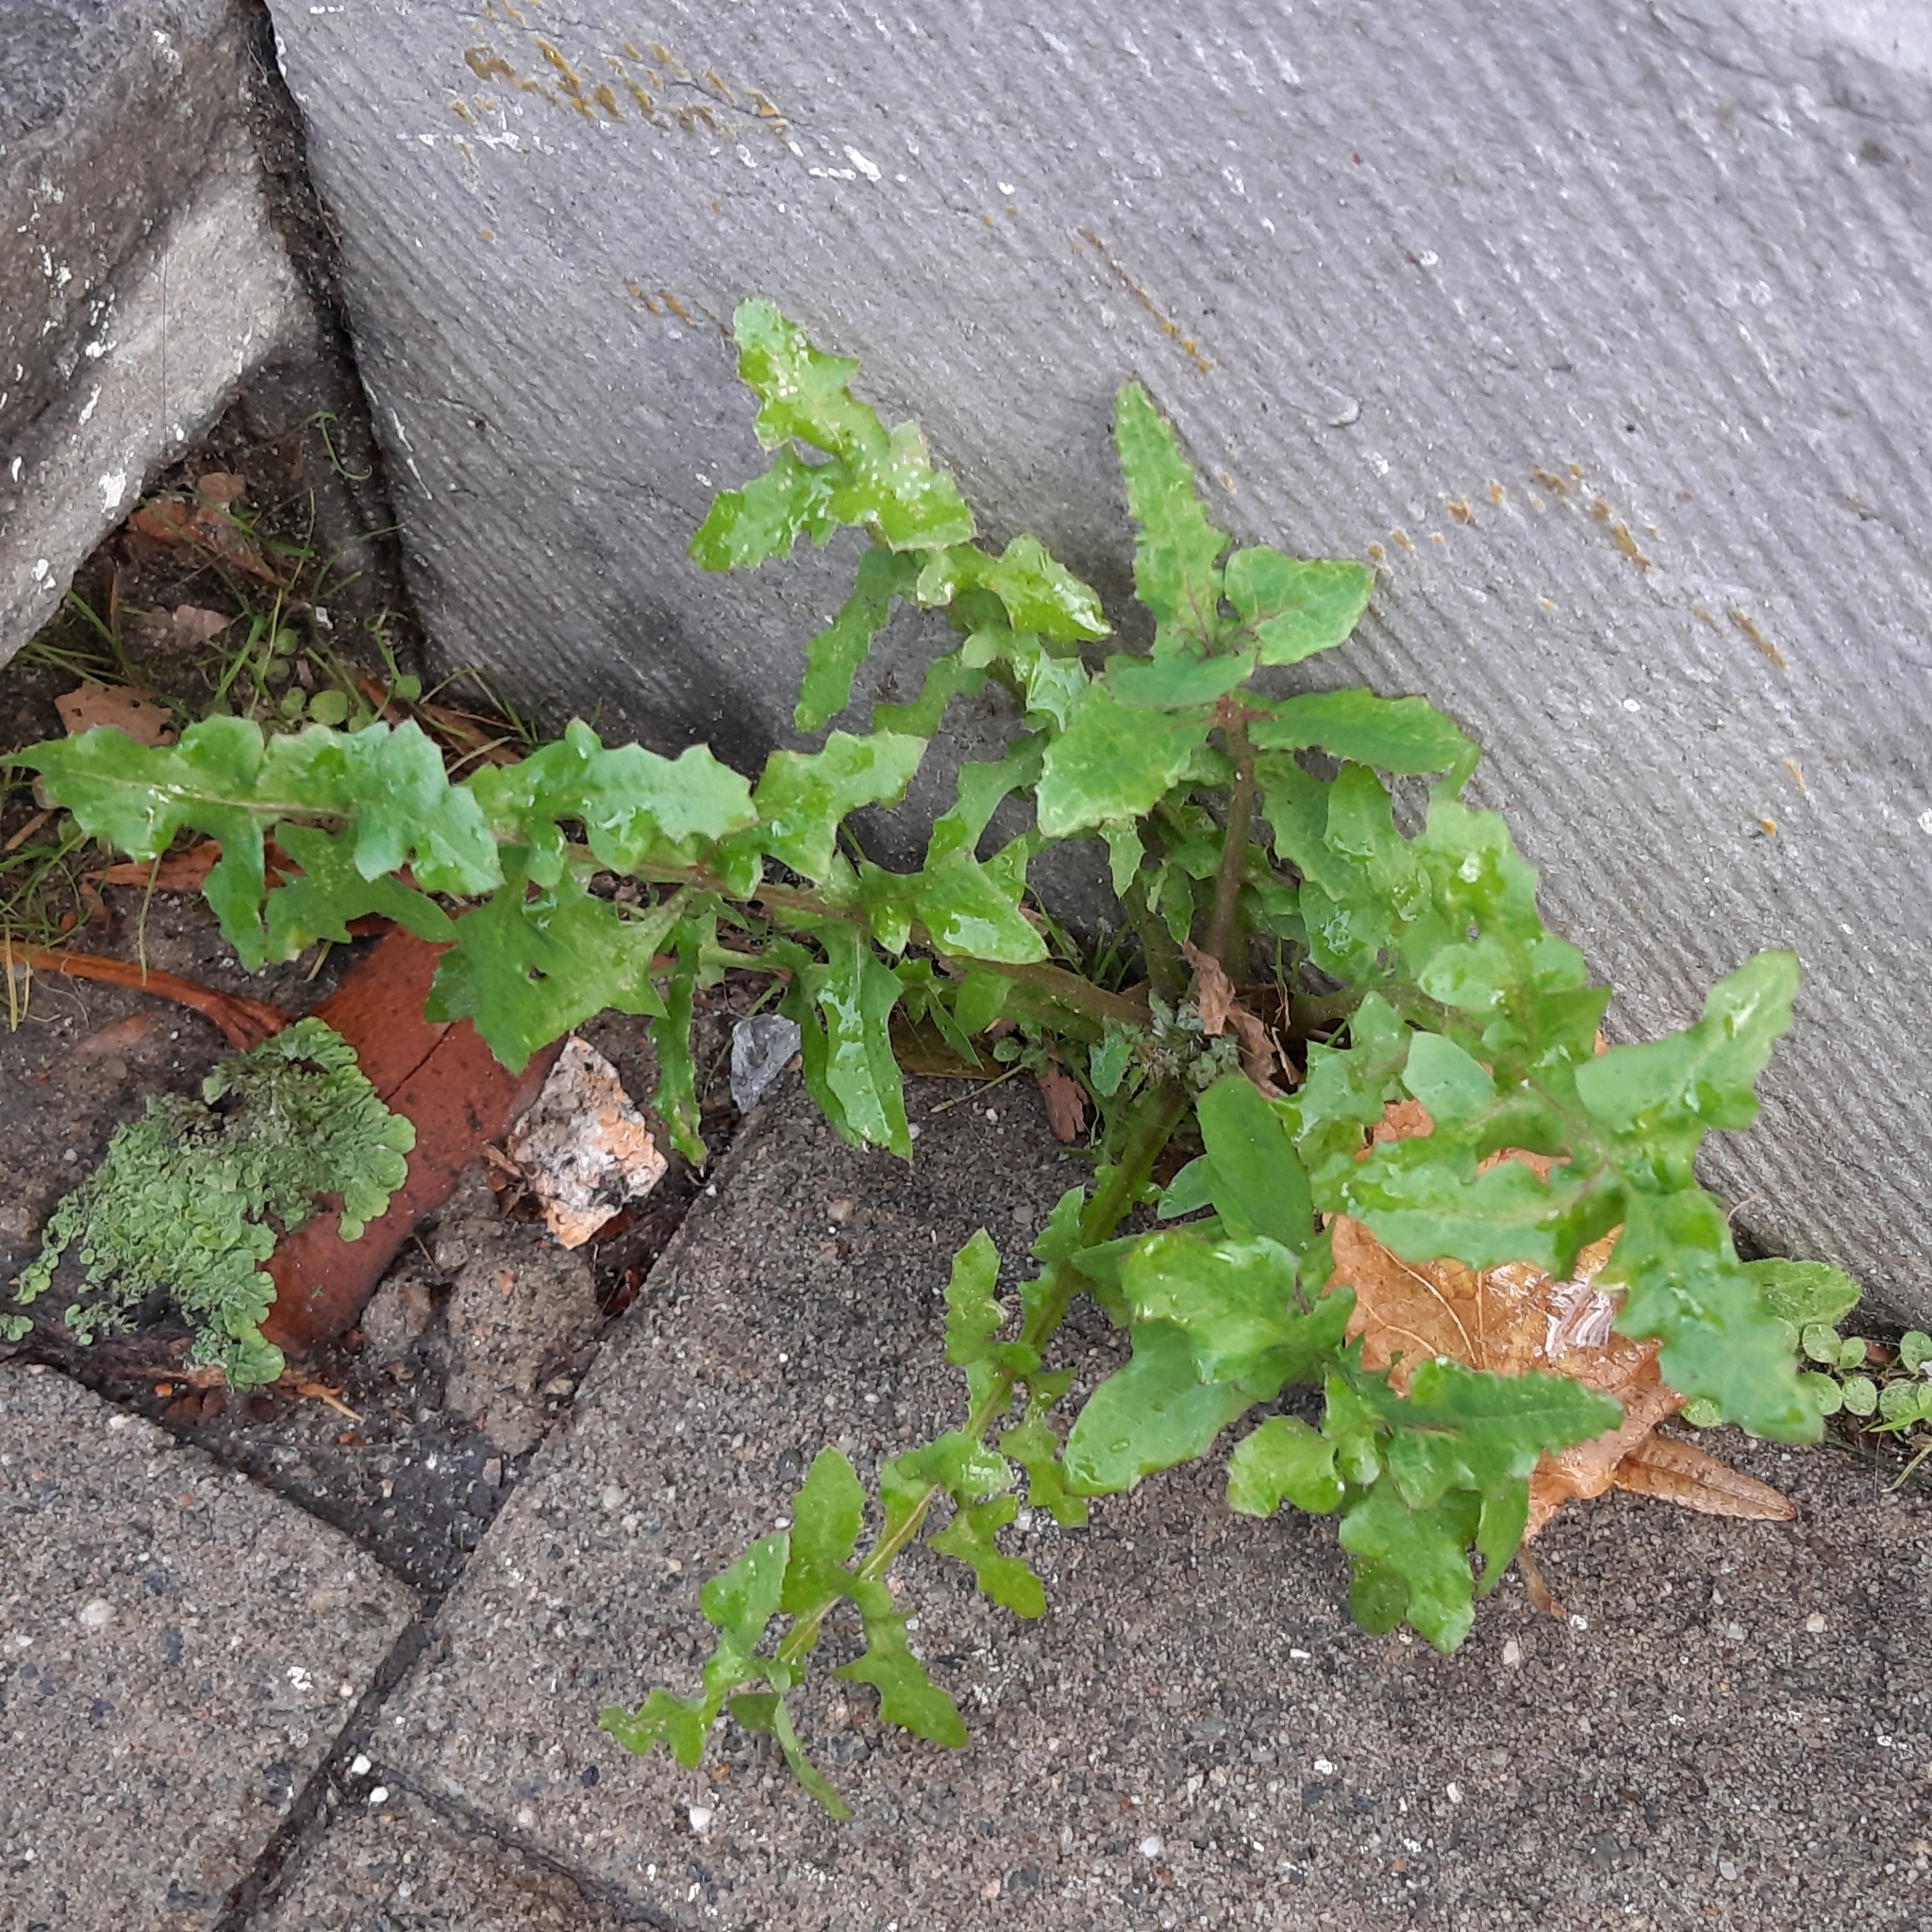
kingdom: Plantae
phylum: Tracheophyta
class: Magnoliopsida
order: Asterales
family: Asteraceae
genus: Sonchus
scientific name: Sonchus oleraceus
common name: Common sowthistle
